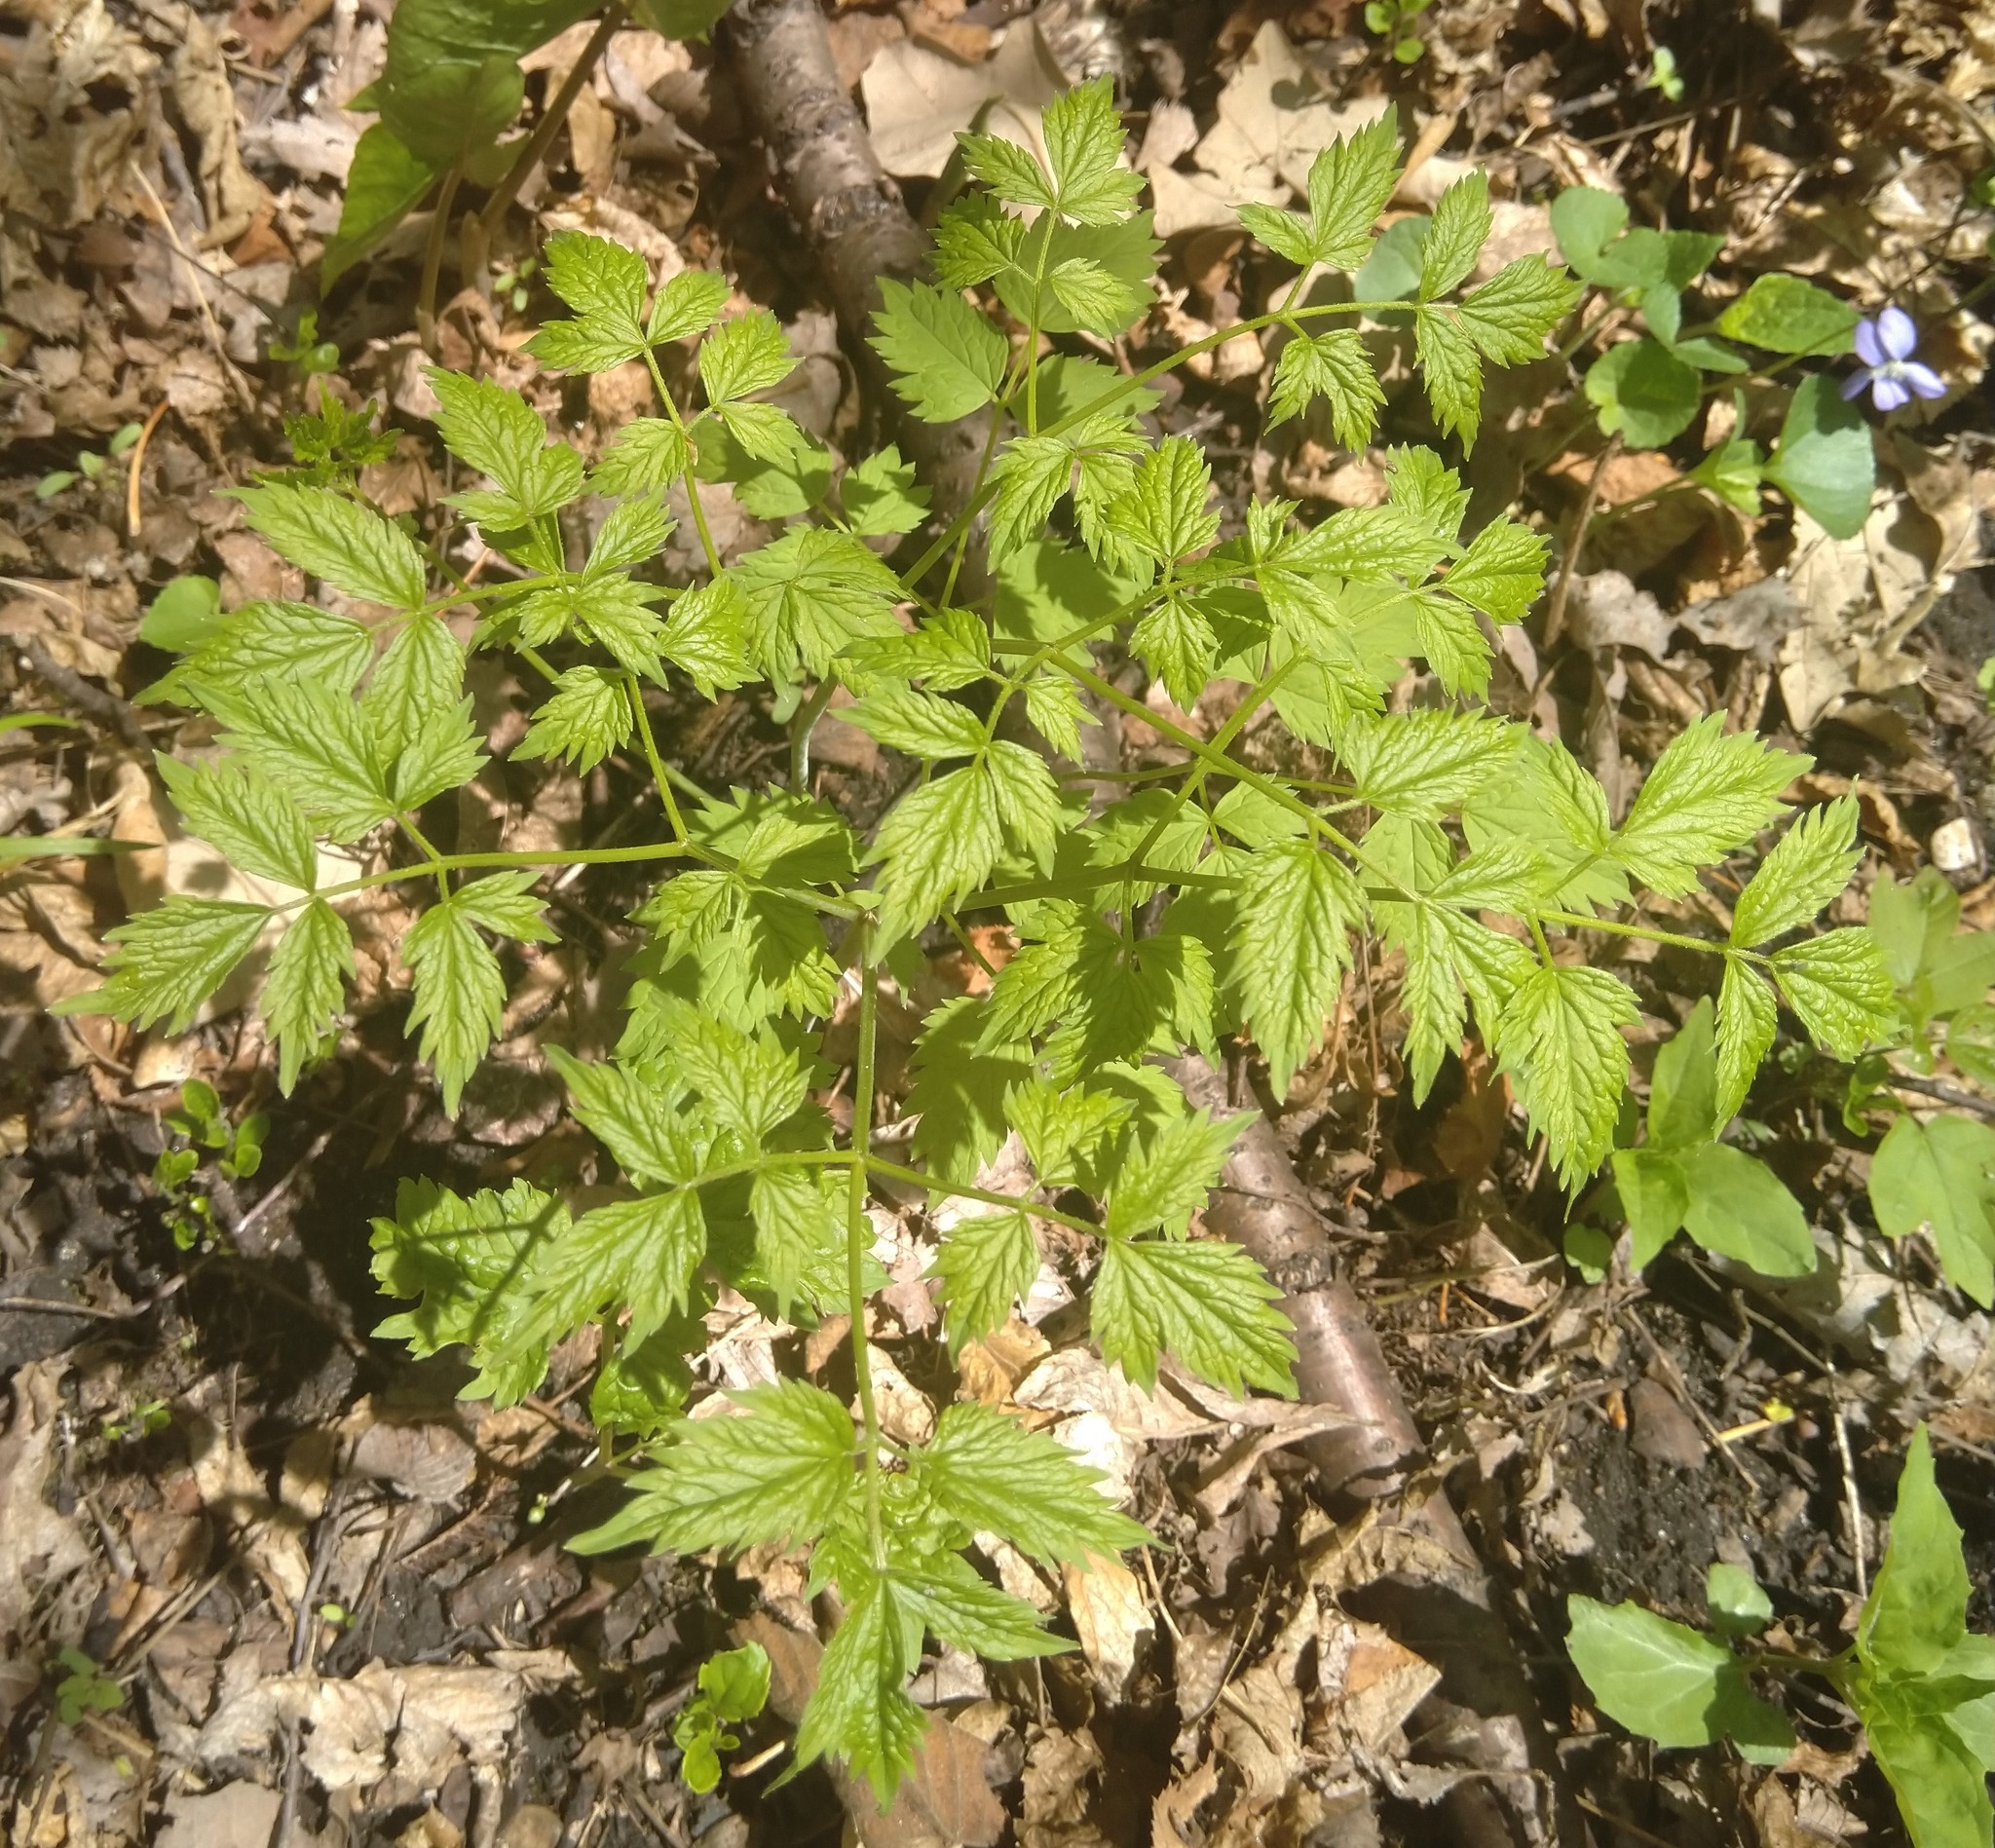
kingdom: Plantae
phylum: Tracheophyta
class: Magnoliopsida
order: Ranunculales
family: Ranunculaceae
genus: Actaea
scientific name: Actaea rubra
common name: Red baneberry
